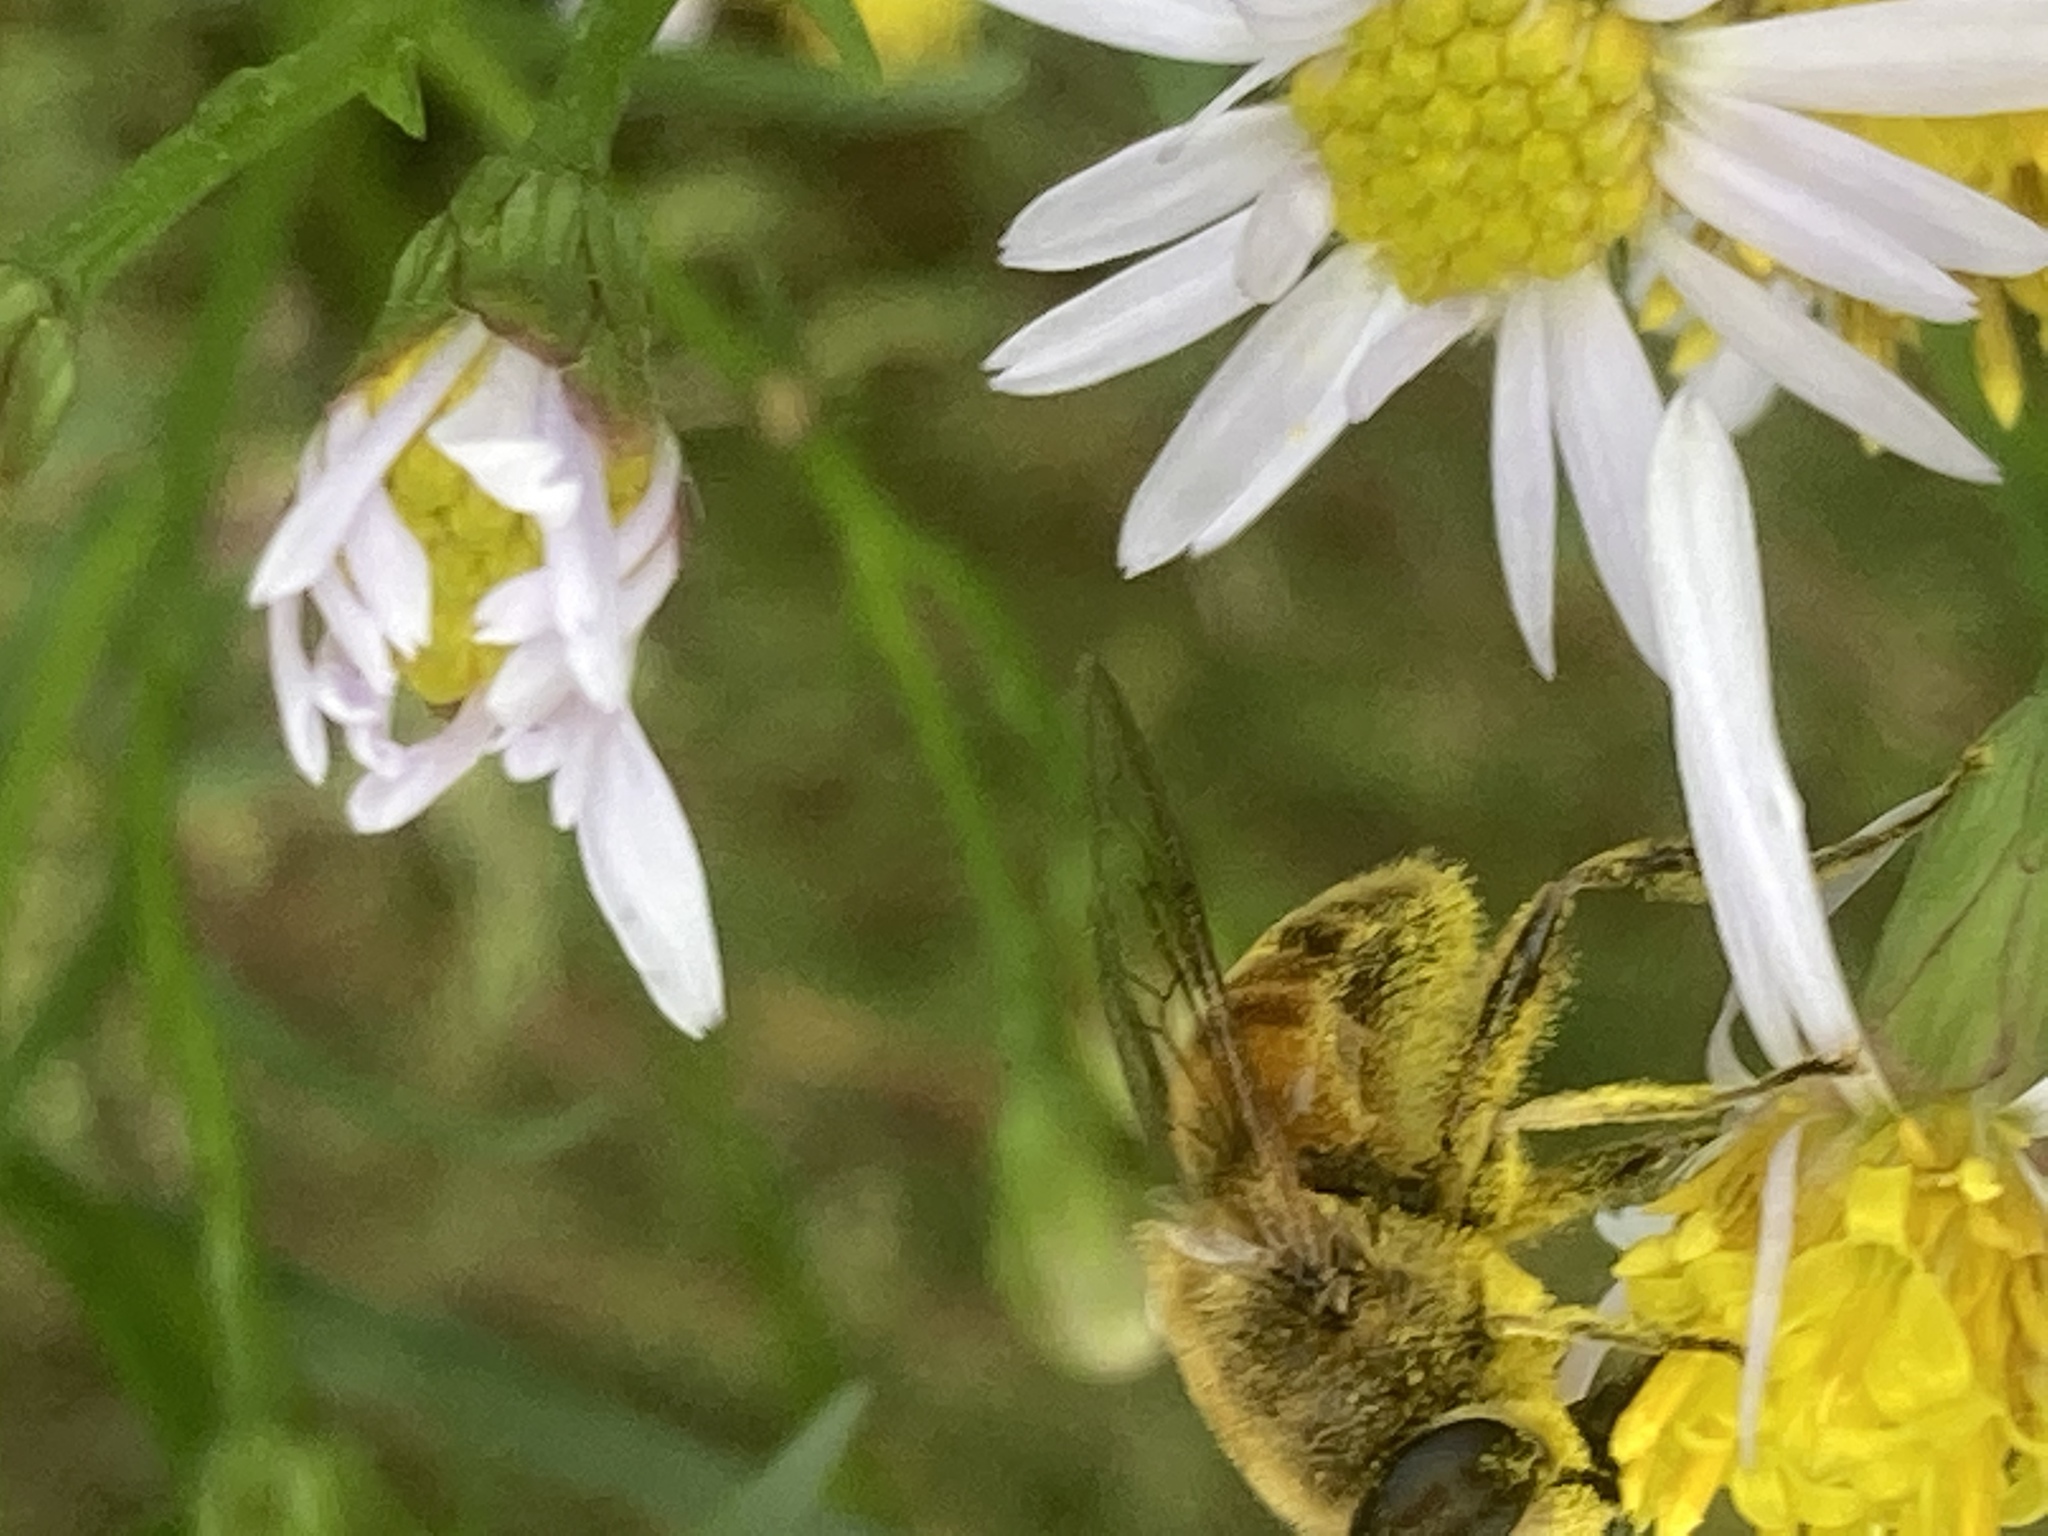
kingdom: Animalia
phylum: Arthropoda
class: Insecta
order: Diptera
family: Syrphidae
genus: Eristalis
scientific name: Eristalis tenax
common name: Drone fly
